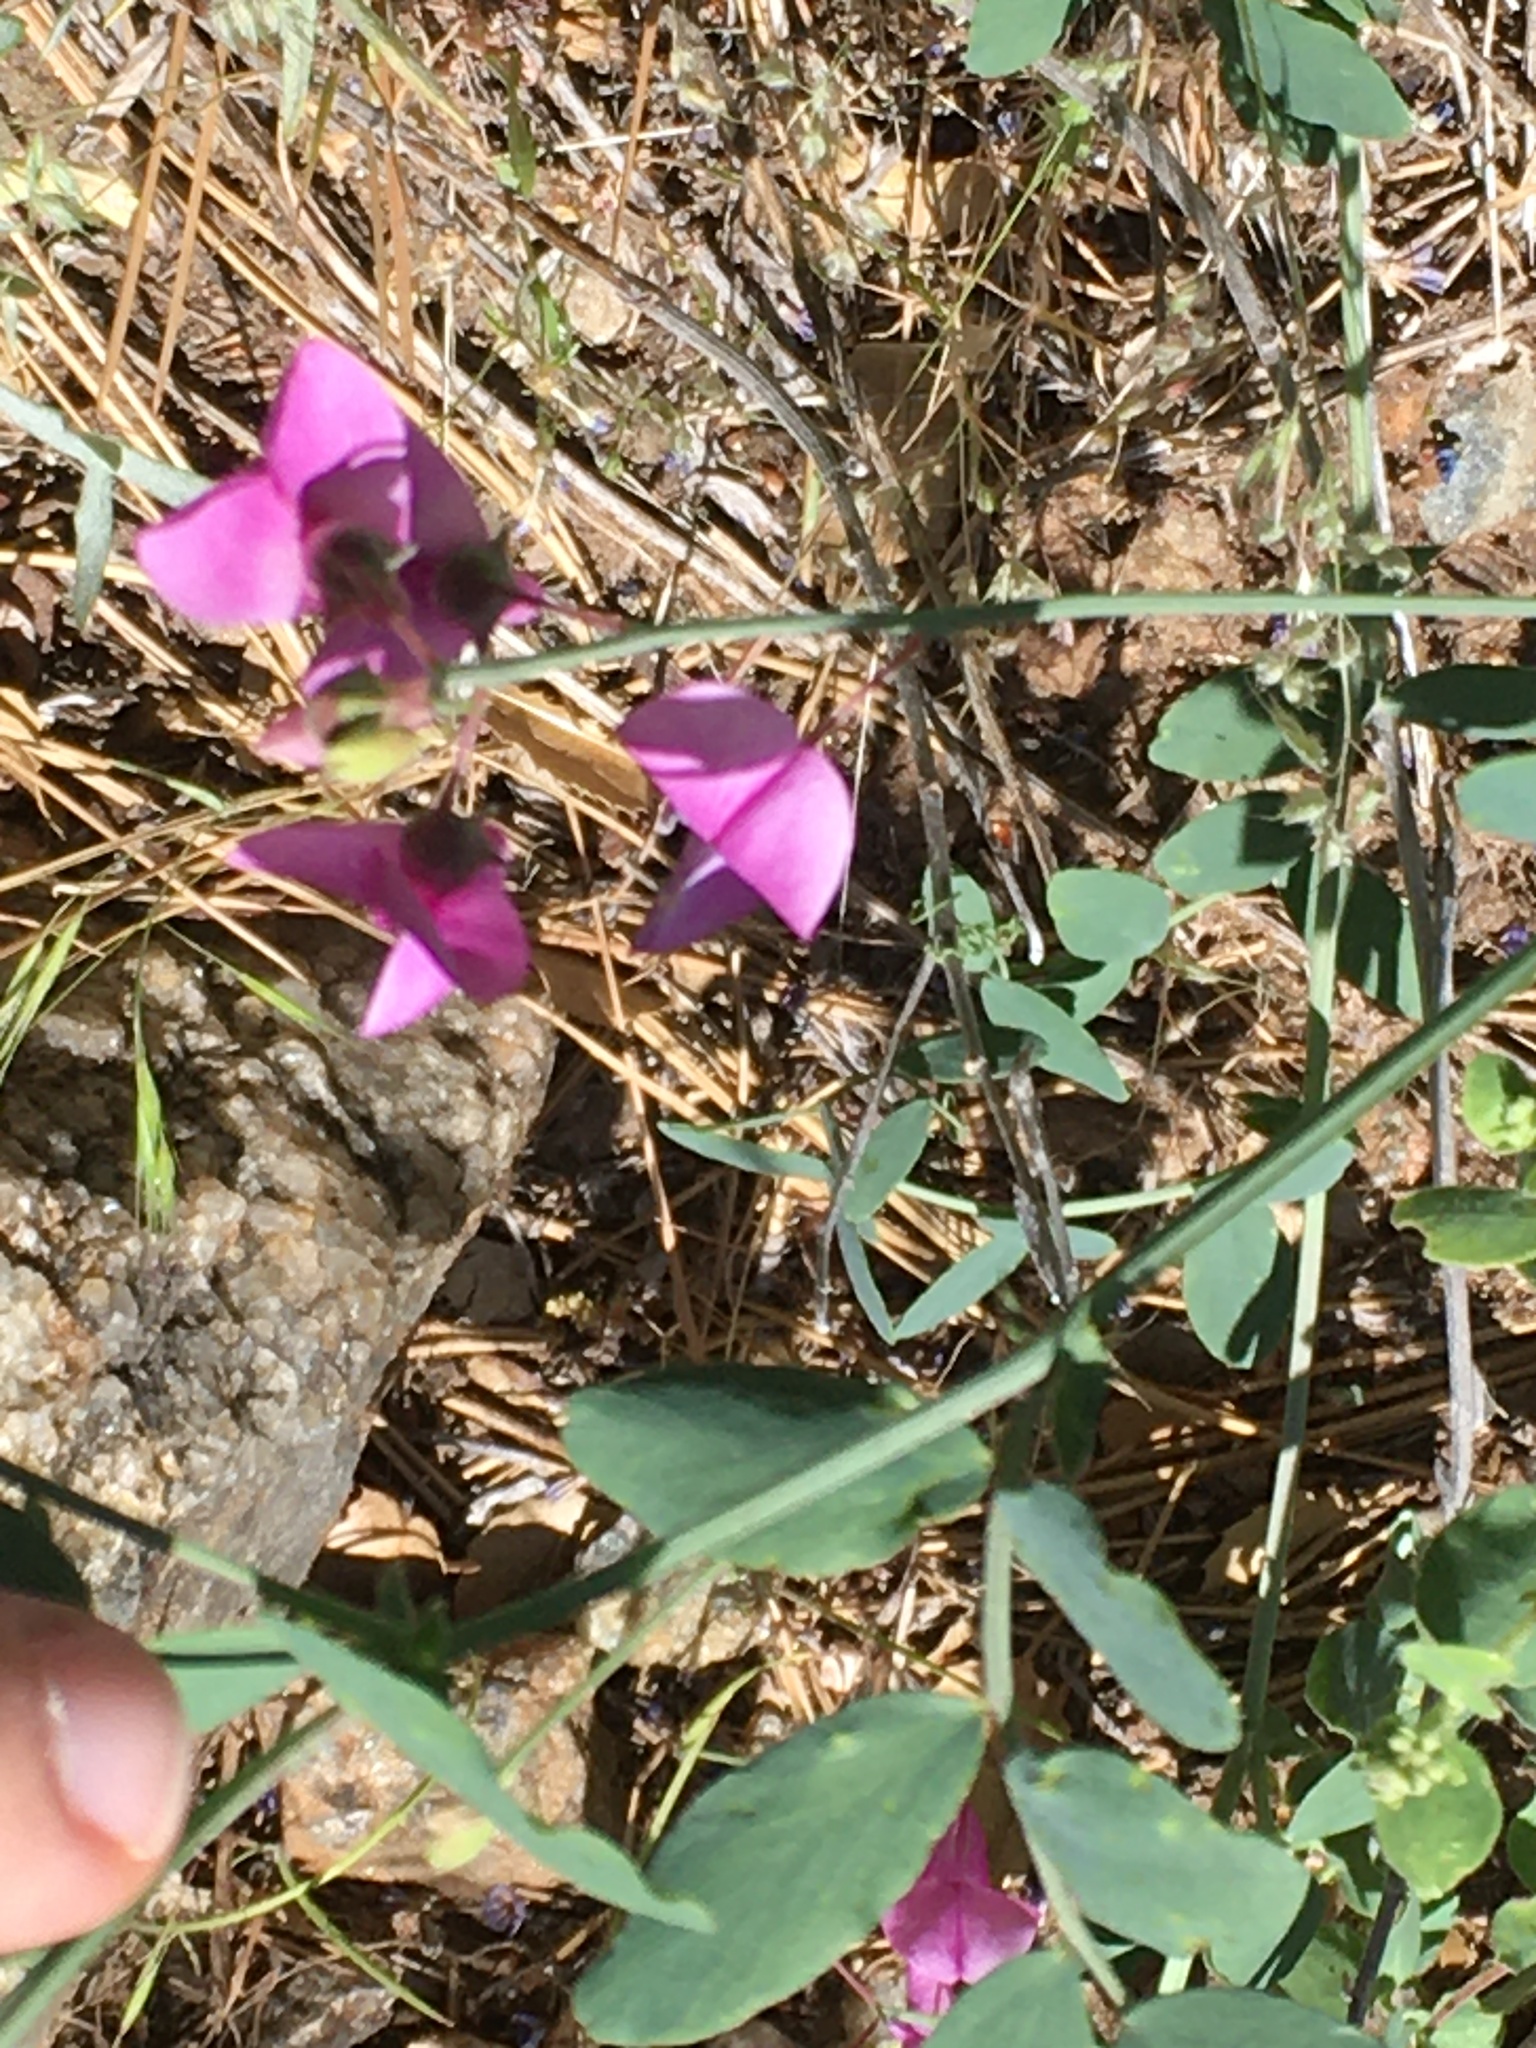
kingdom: Plantae
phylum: Tracheophyta
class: Magnoliopsida
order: Fabales
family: Fabaceae
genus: Lathyrus
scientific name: Lathyrus vestitus
